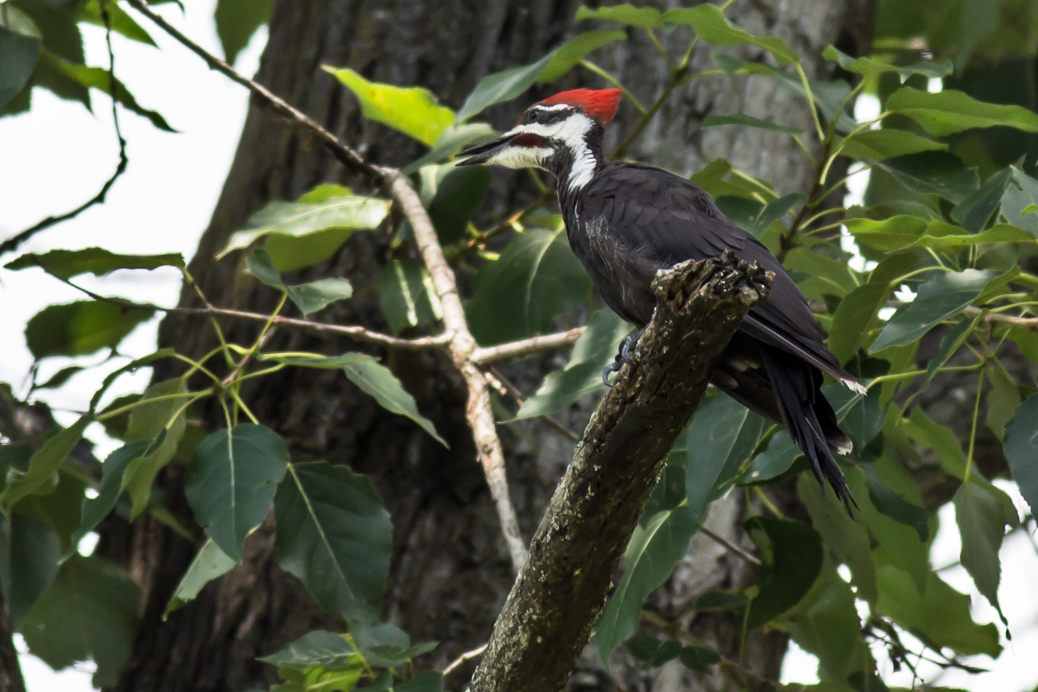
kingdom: Animalia
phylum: Chordata
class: Aves
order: Piciformes
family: Picidae
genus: Dryocopus
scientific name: Dryocopus pileatus
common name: Pileated woodpecker
